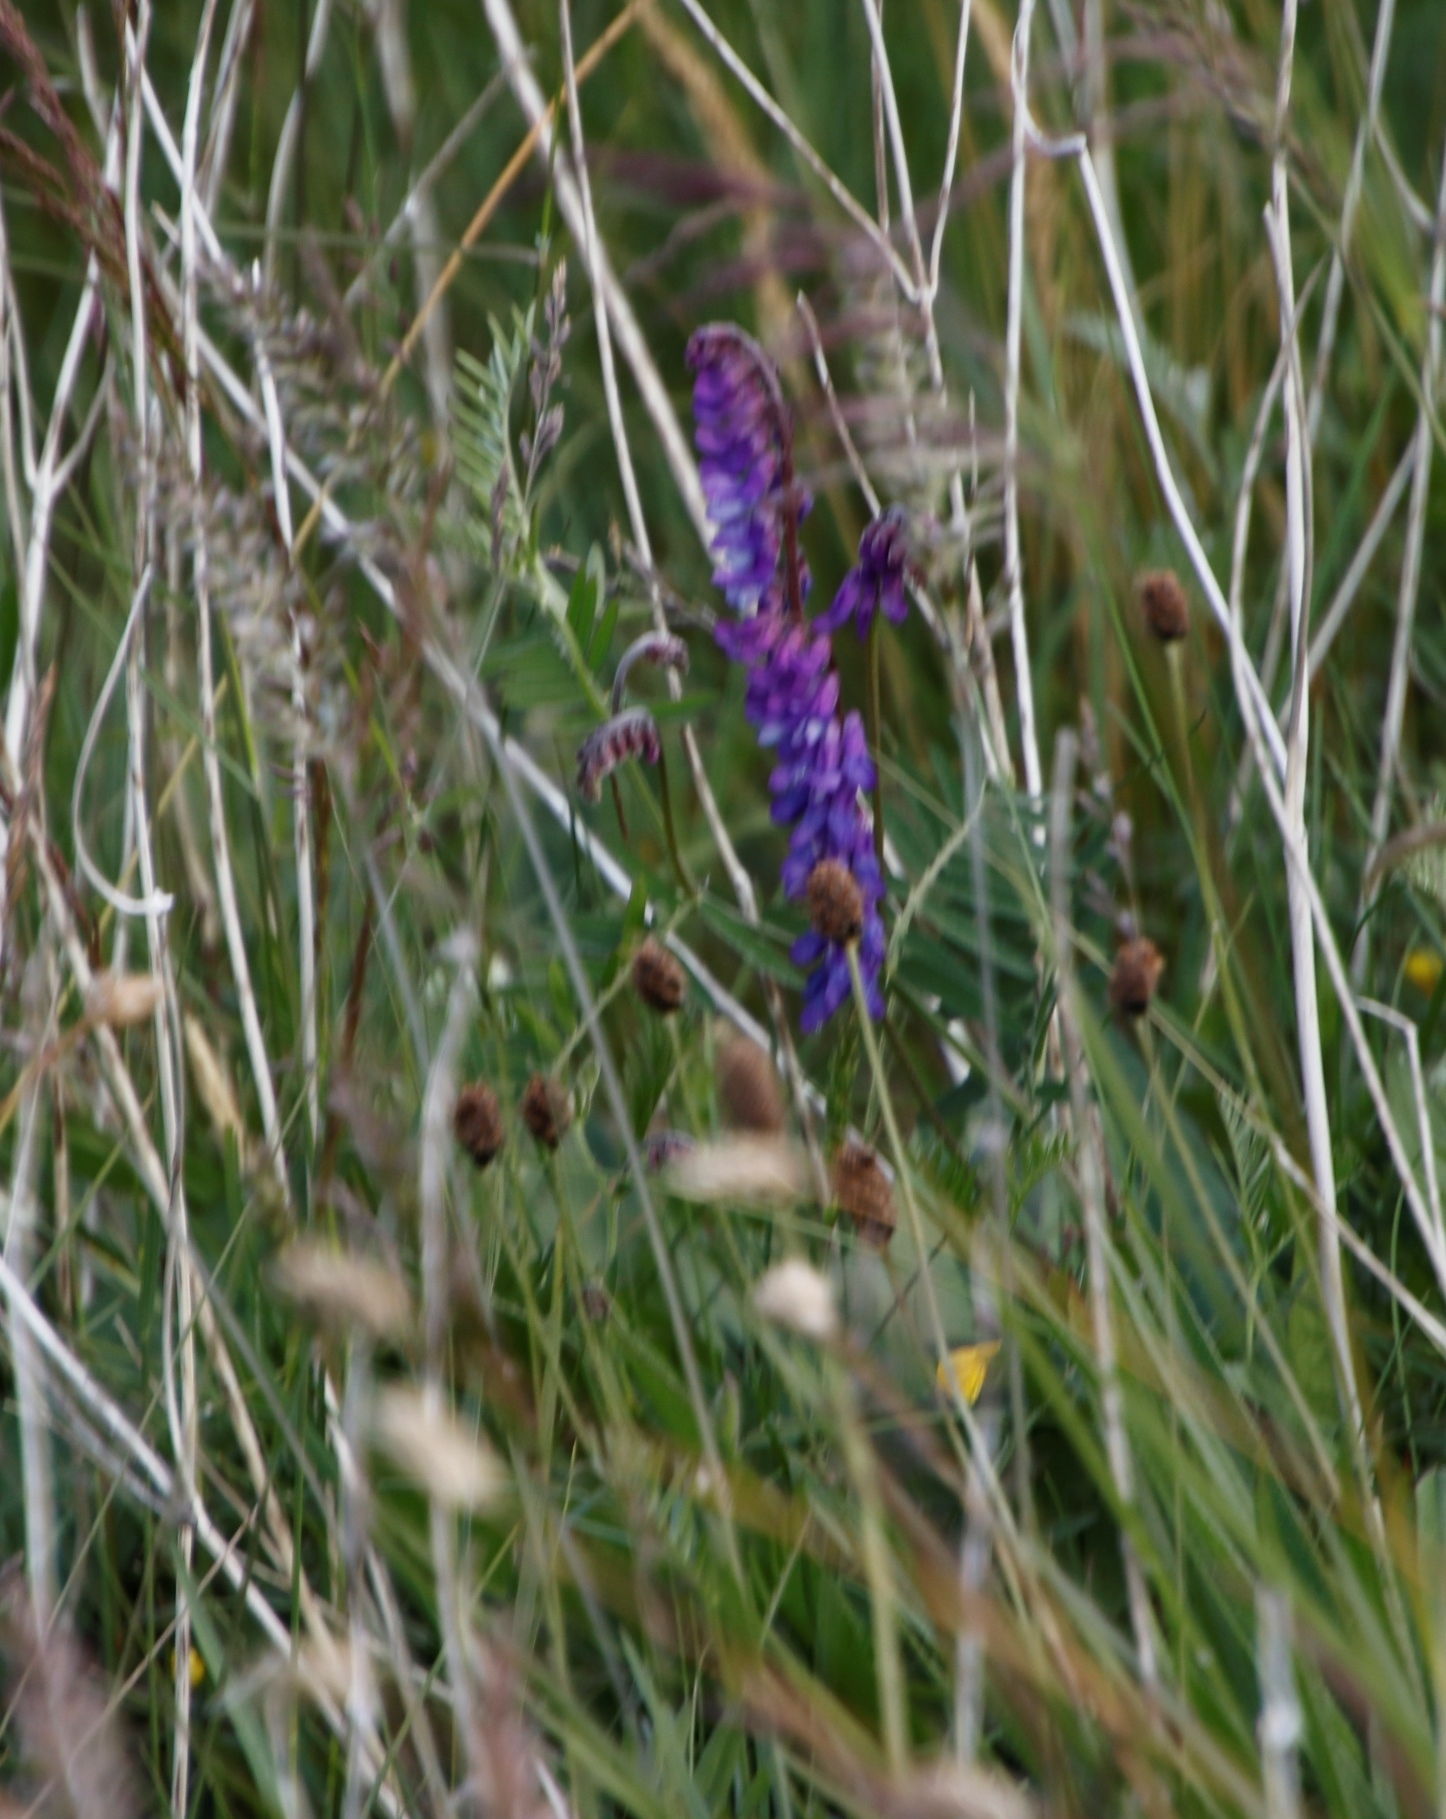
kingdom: Plantae
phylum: Tracheophyta
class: Magnoliopsida
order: Fabales
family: Fabaceae
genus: Vicia
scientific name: Vicia cracca
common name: Bird vetch
